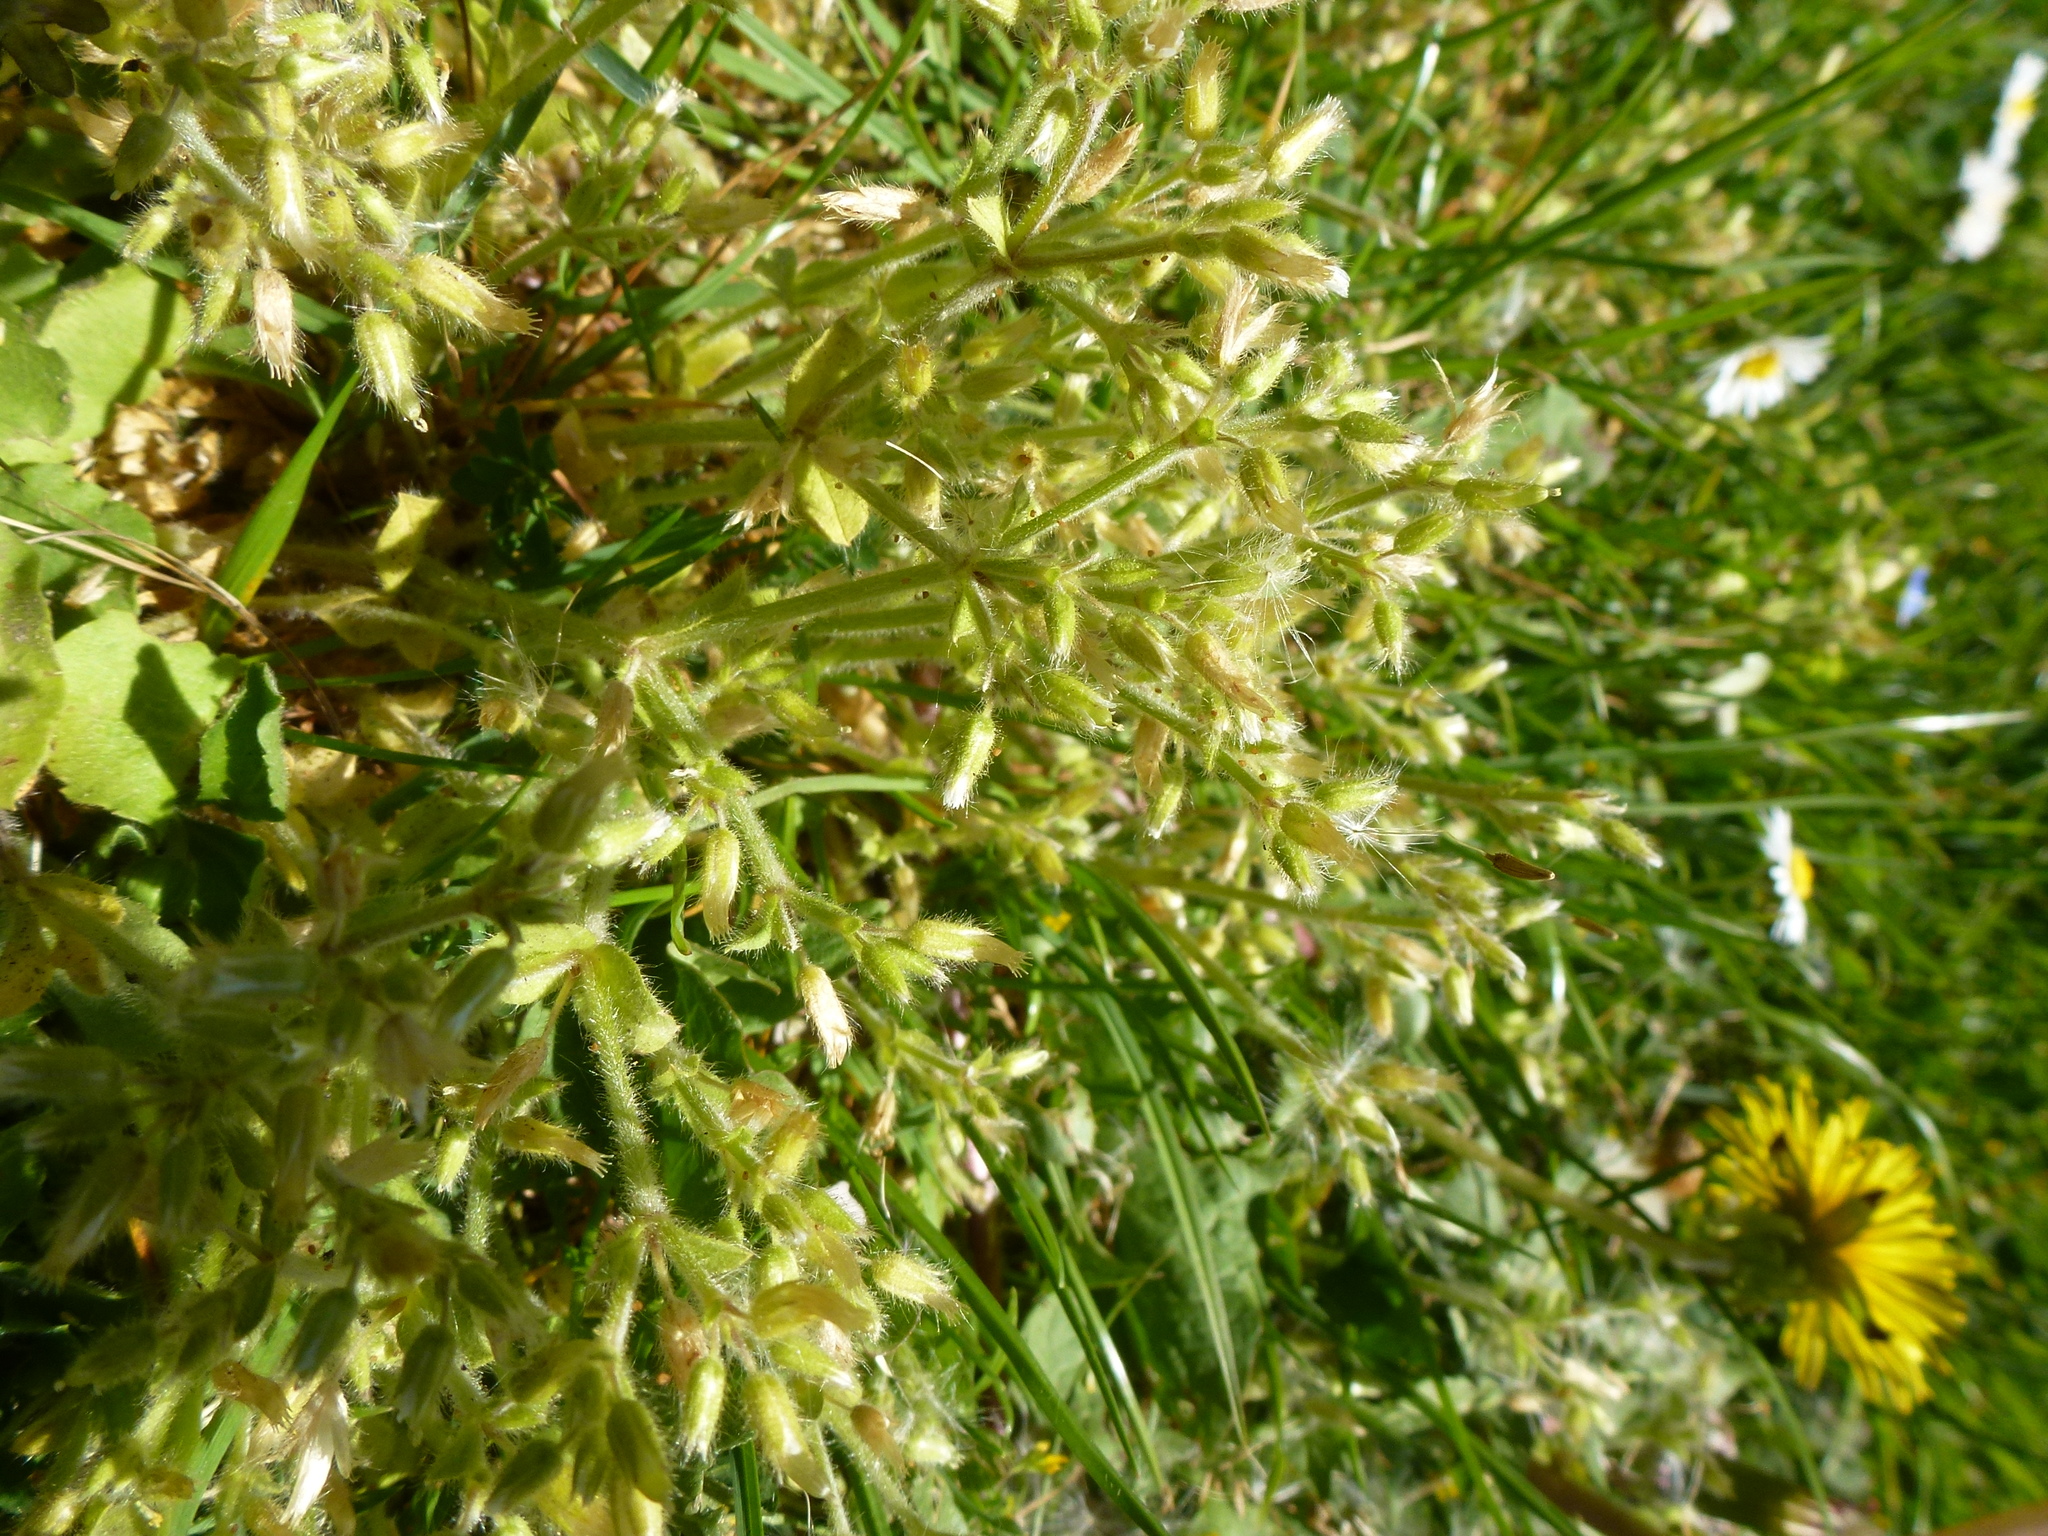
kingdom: Plantae
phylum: Tracheophyta
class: Magnoliopsida
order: Caryophyllales
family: Caryophyllaceae
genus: Cerastium
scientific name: Cerastium glomeratum
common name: Sticky chickweed
